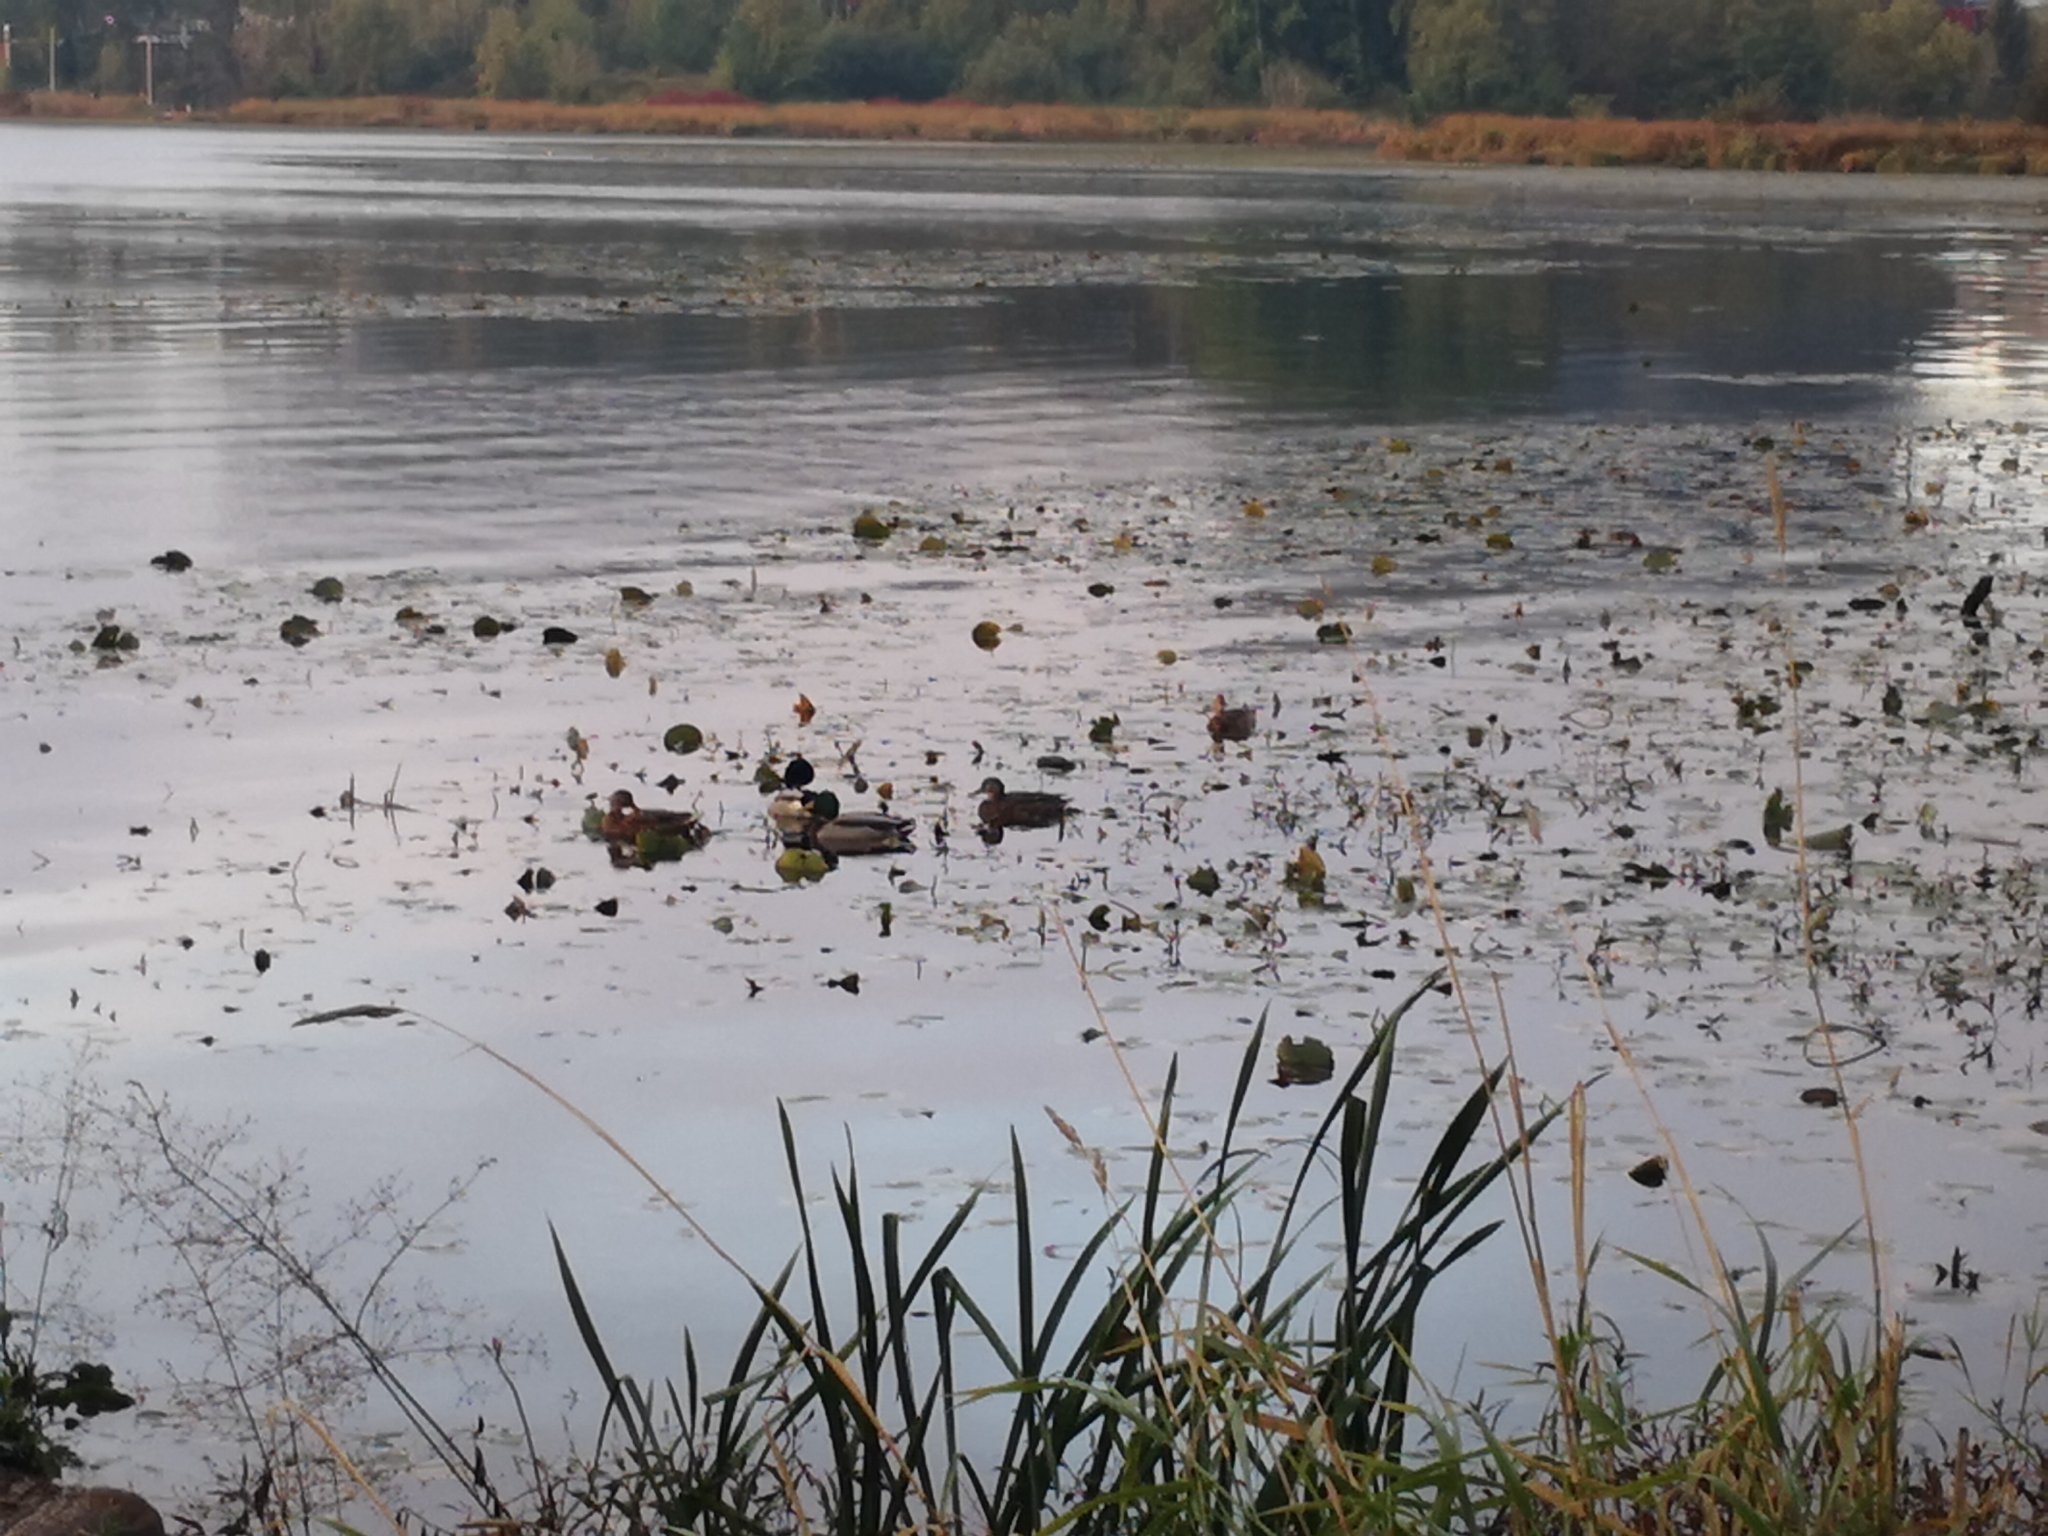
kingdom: Animalia
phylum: Chordata
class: Aves
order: Anseriformes
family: Anatidae
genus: Anas
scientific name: Anas platyrhynchos
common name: Mallard
